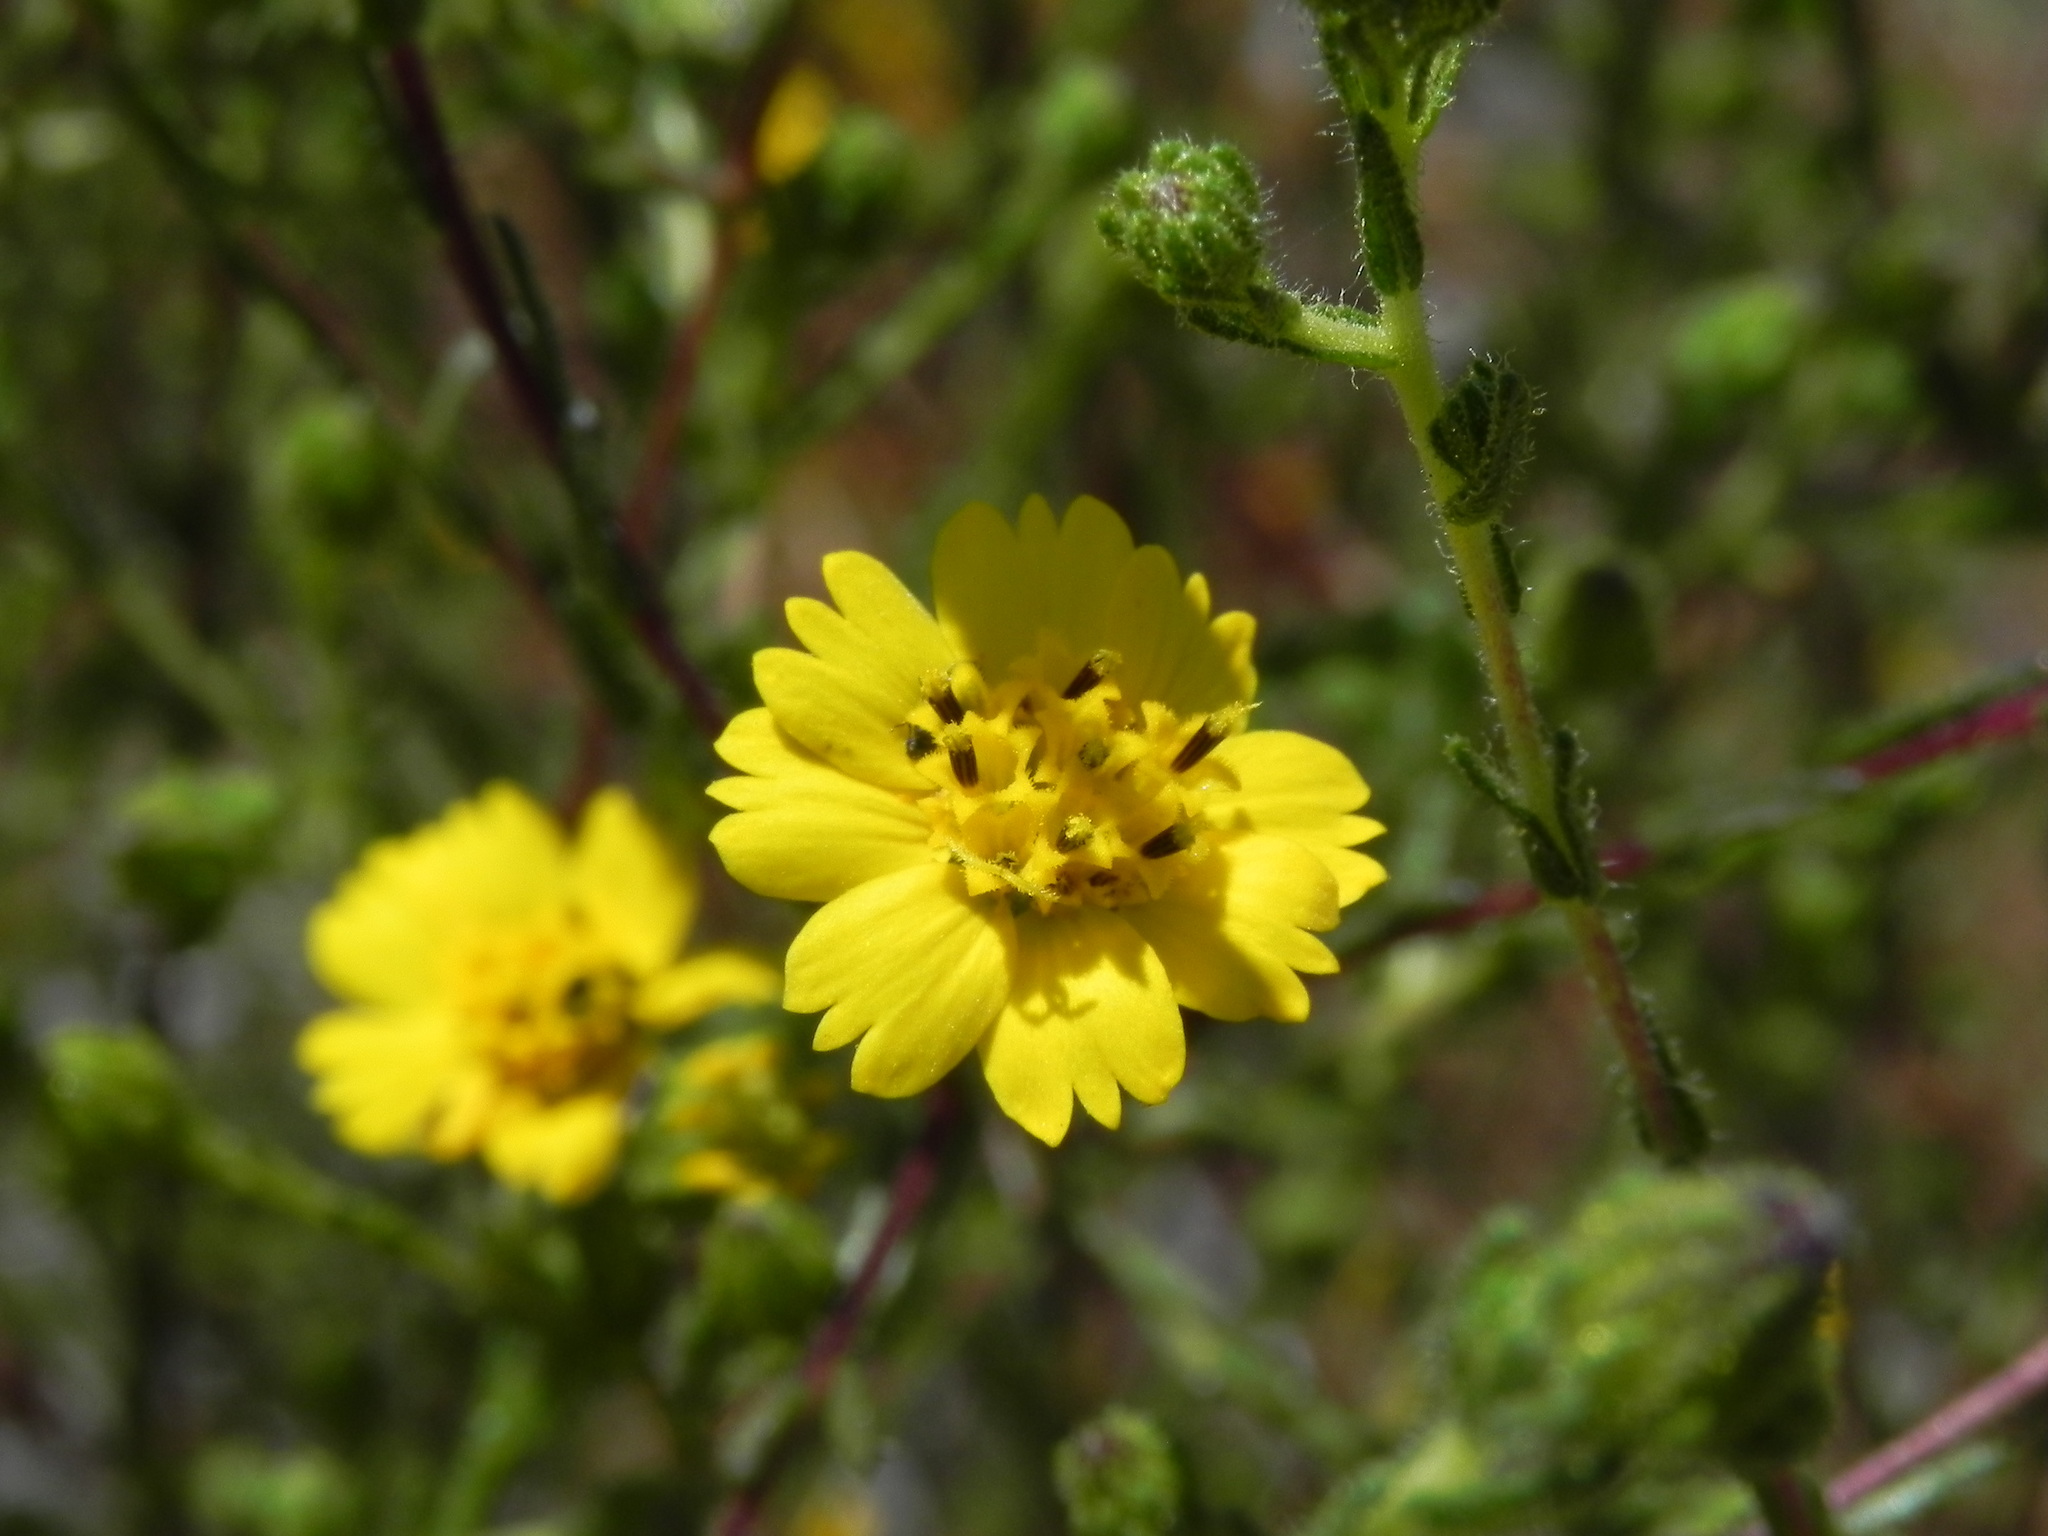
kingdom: Plantae
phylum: Tracheophyta
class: Magnoliopsida
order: Asterales
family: Asteraceae
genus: Deinandra
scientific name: Deinandra conjugens
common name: Otay tarplant
